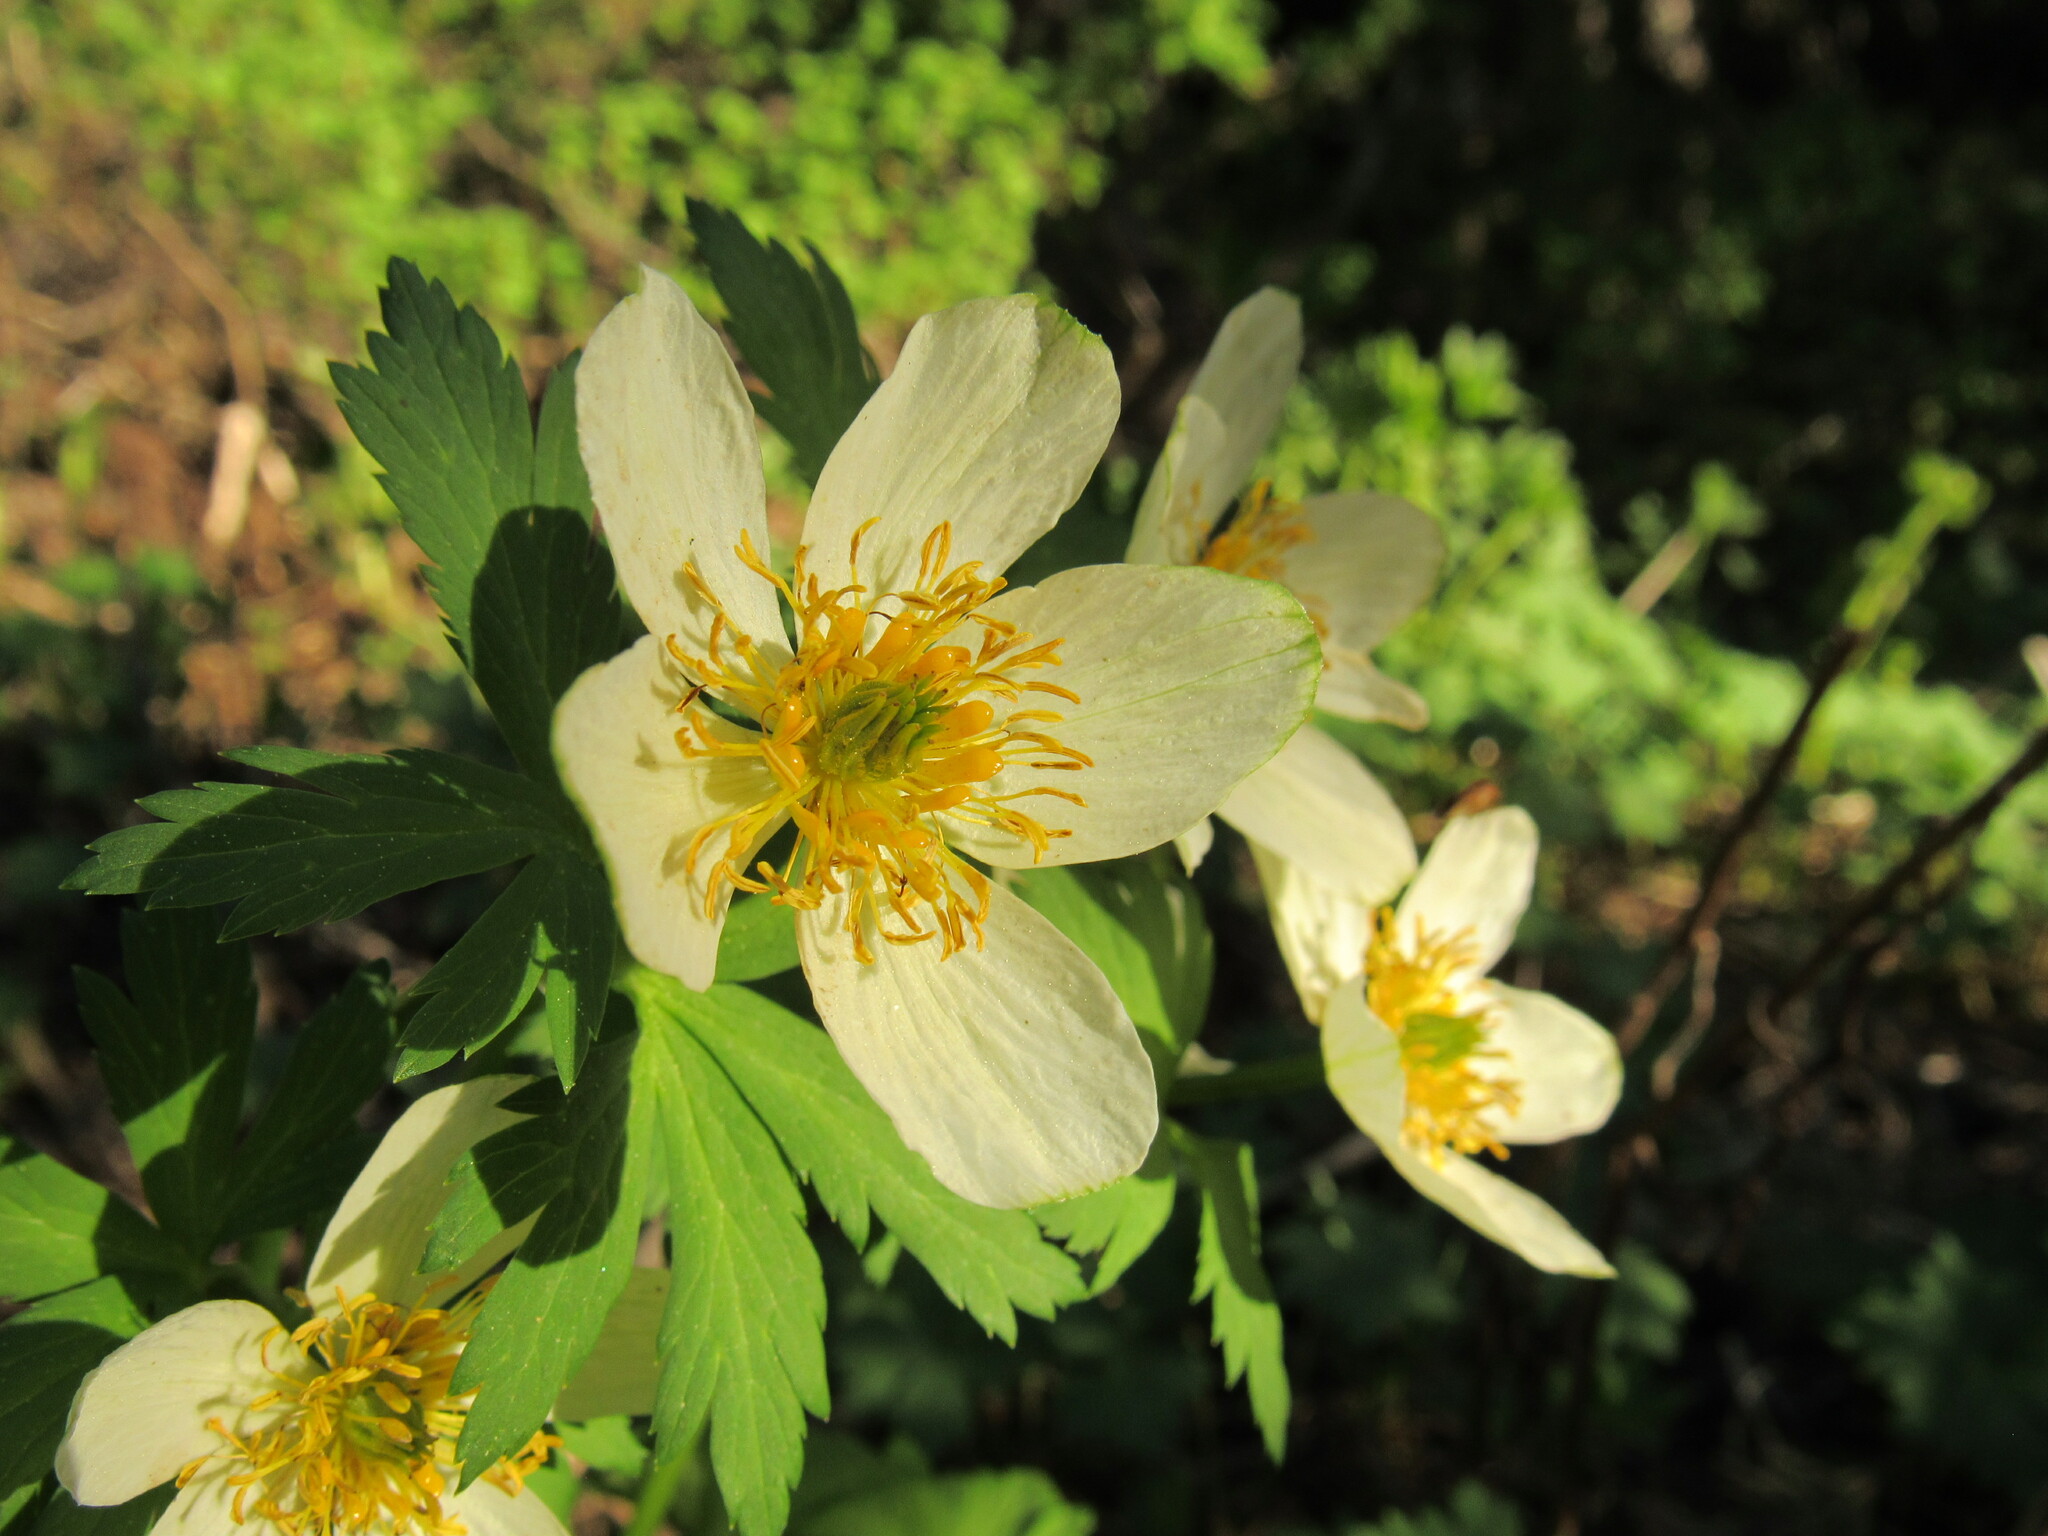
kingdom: Plantae
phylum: Tracheophyta
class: Magnoliopsida
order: Ranunculales
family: Ranunculaceae
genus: Trollius
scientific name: Trollius laxus
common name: American globeflower
